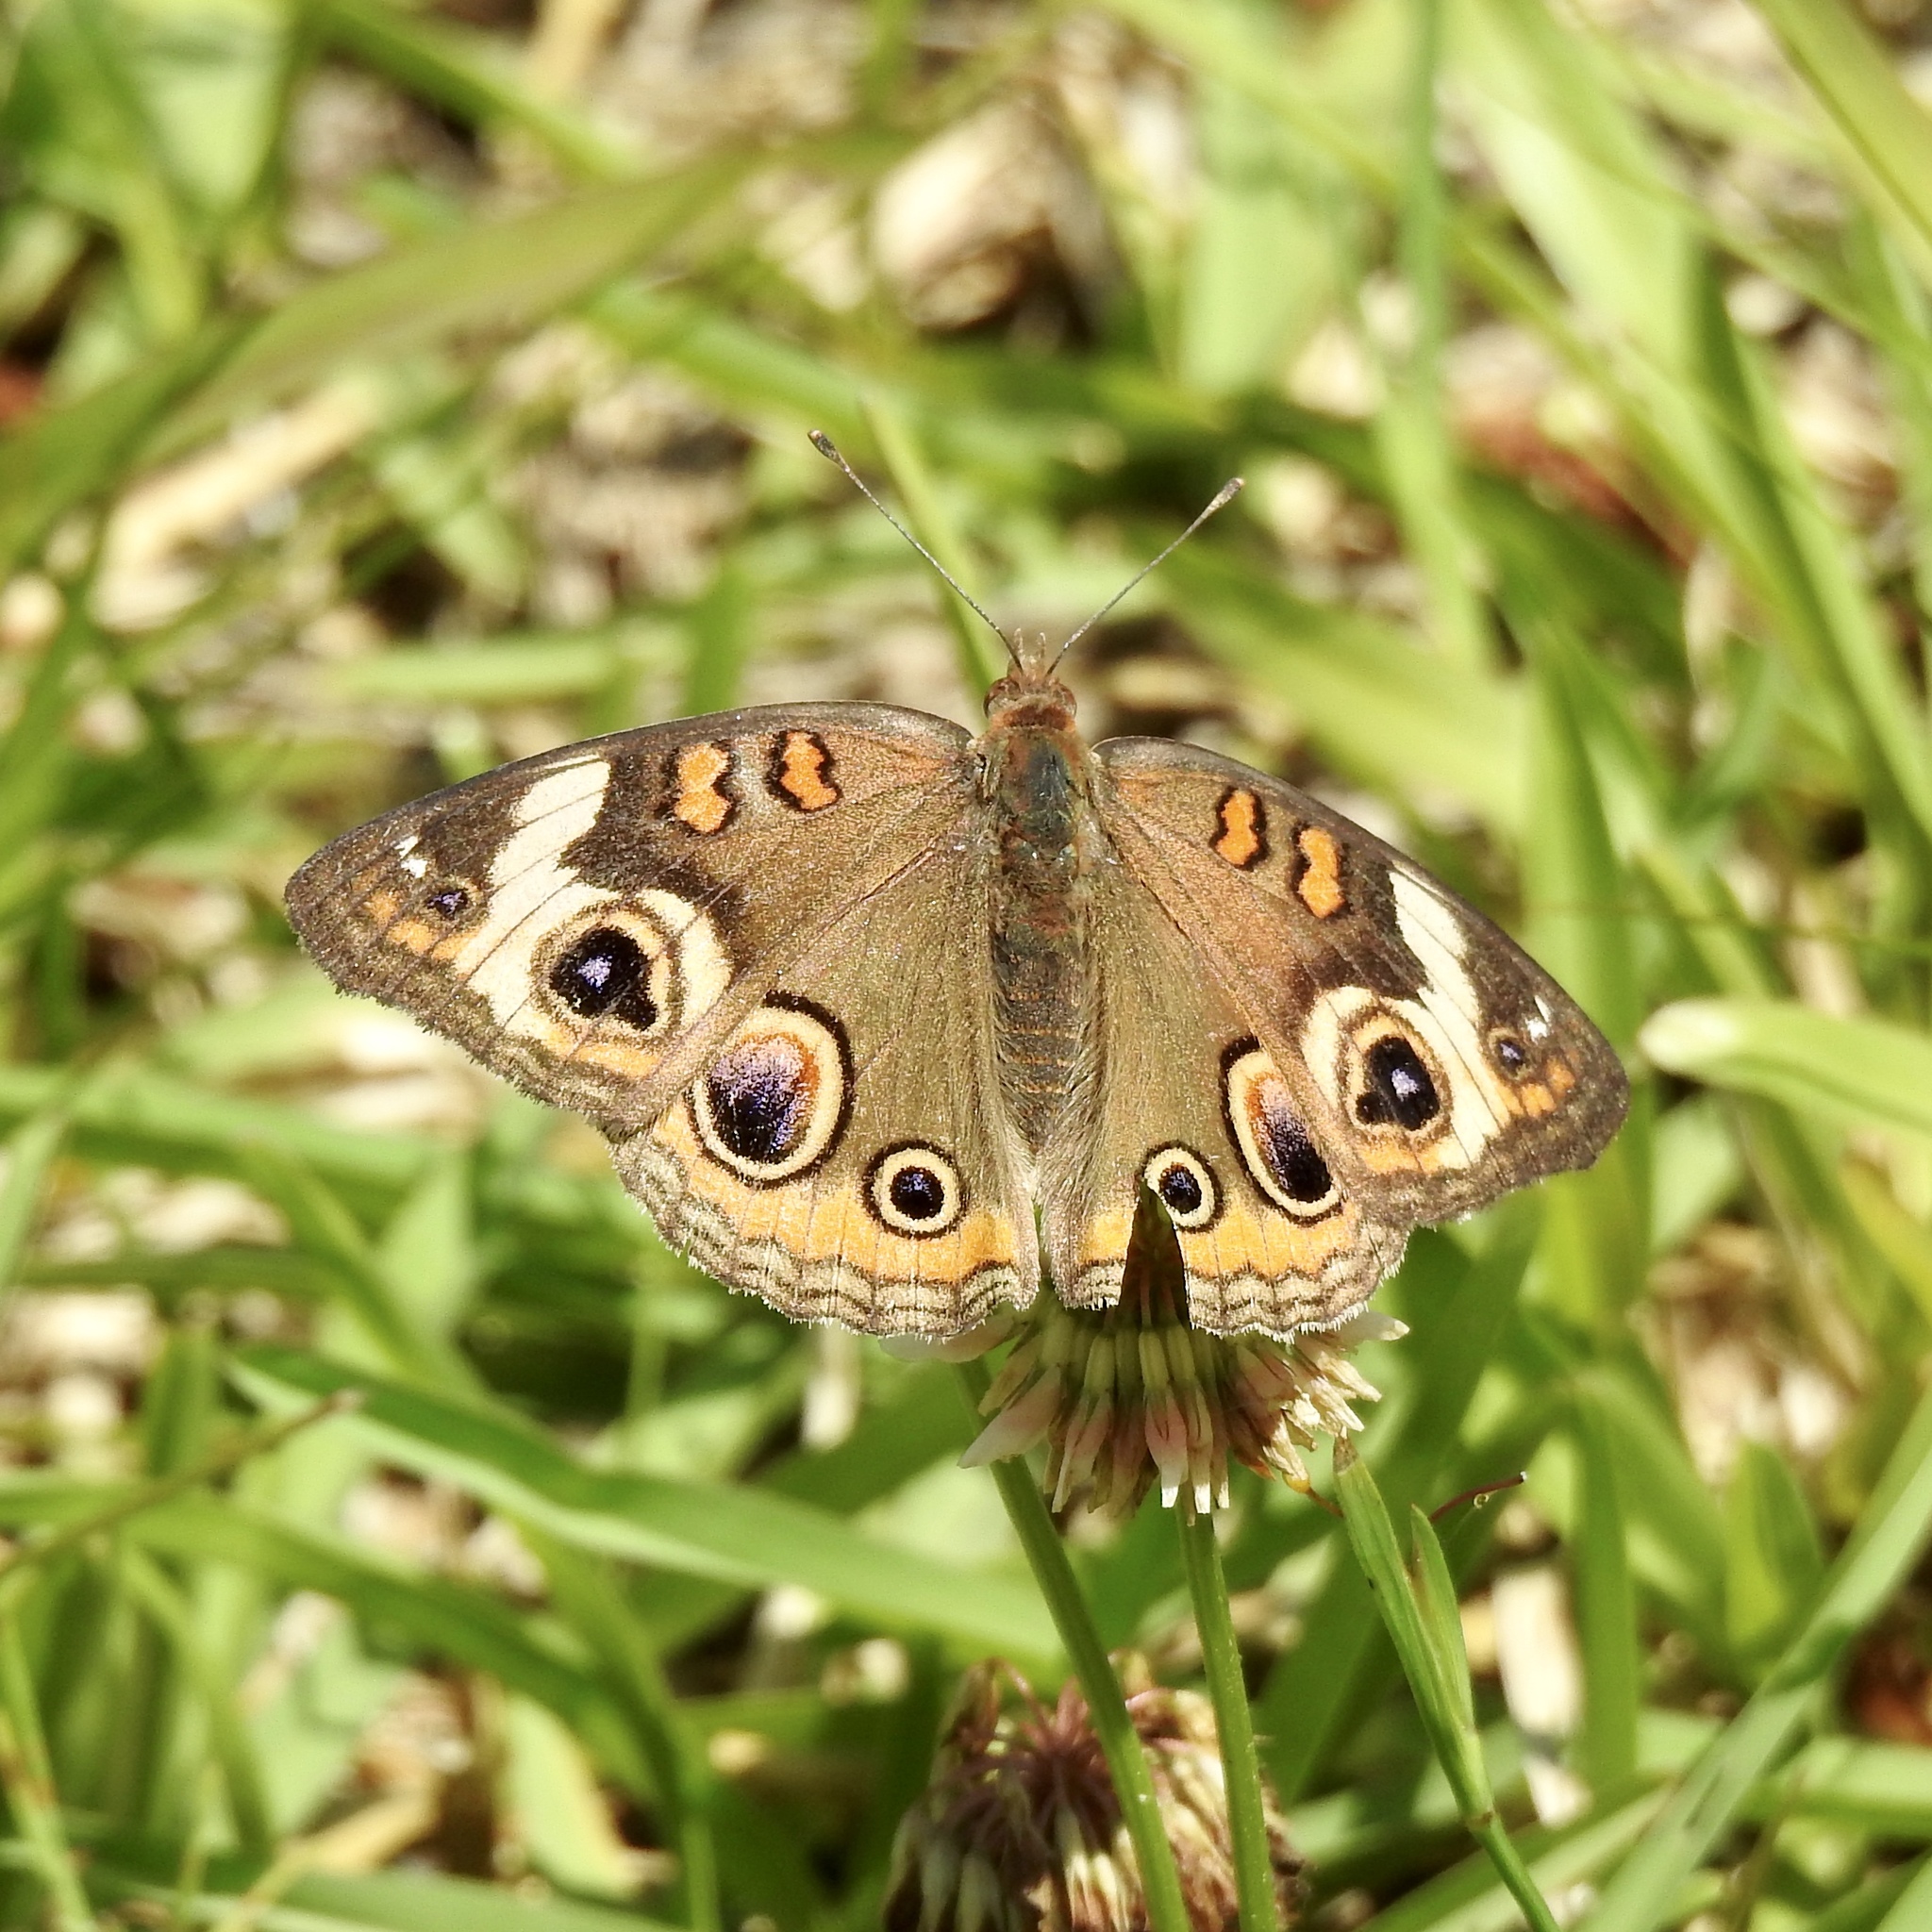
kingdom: Animalia
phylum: Arthropoda
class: Insecta
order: Lepidoptera
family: Nymphalidae
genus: Junonia
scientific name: Junonia coenia
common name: Common buckeye
